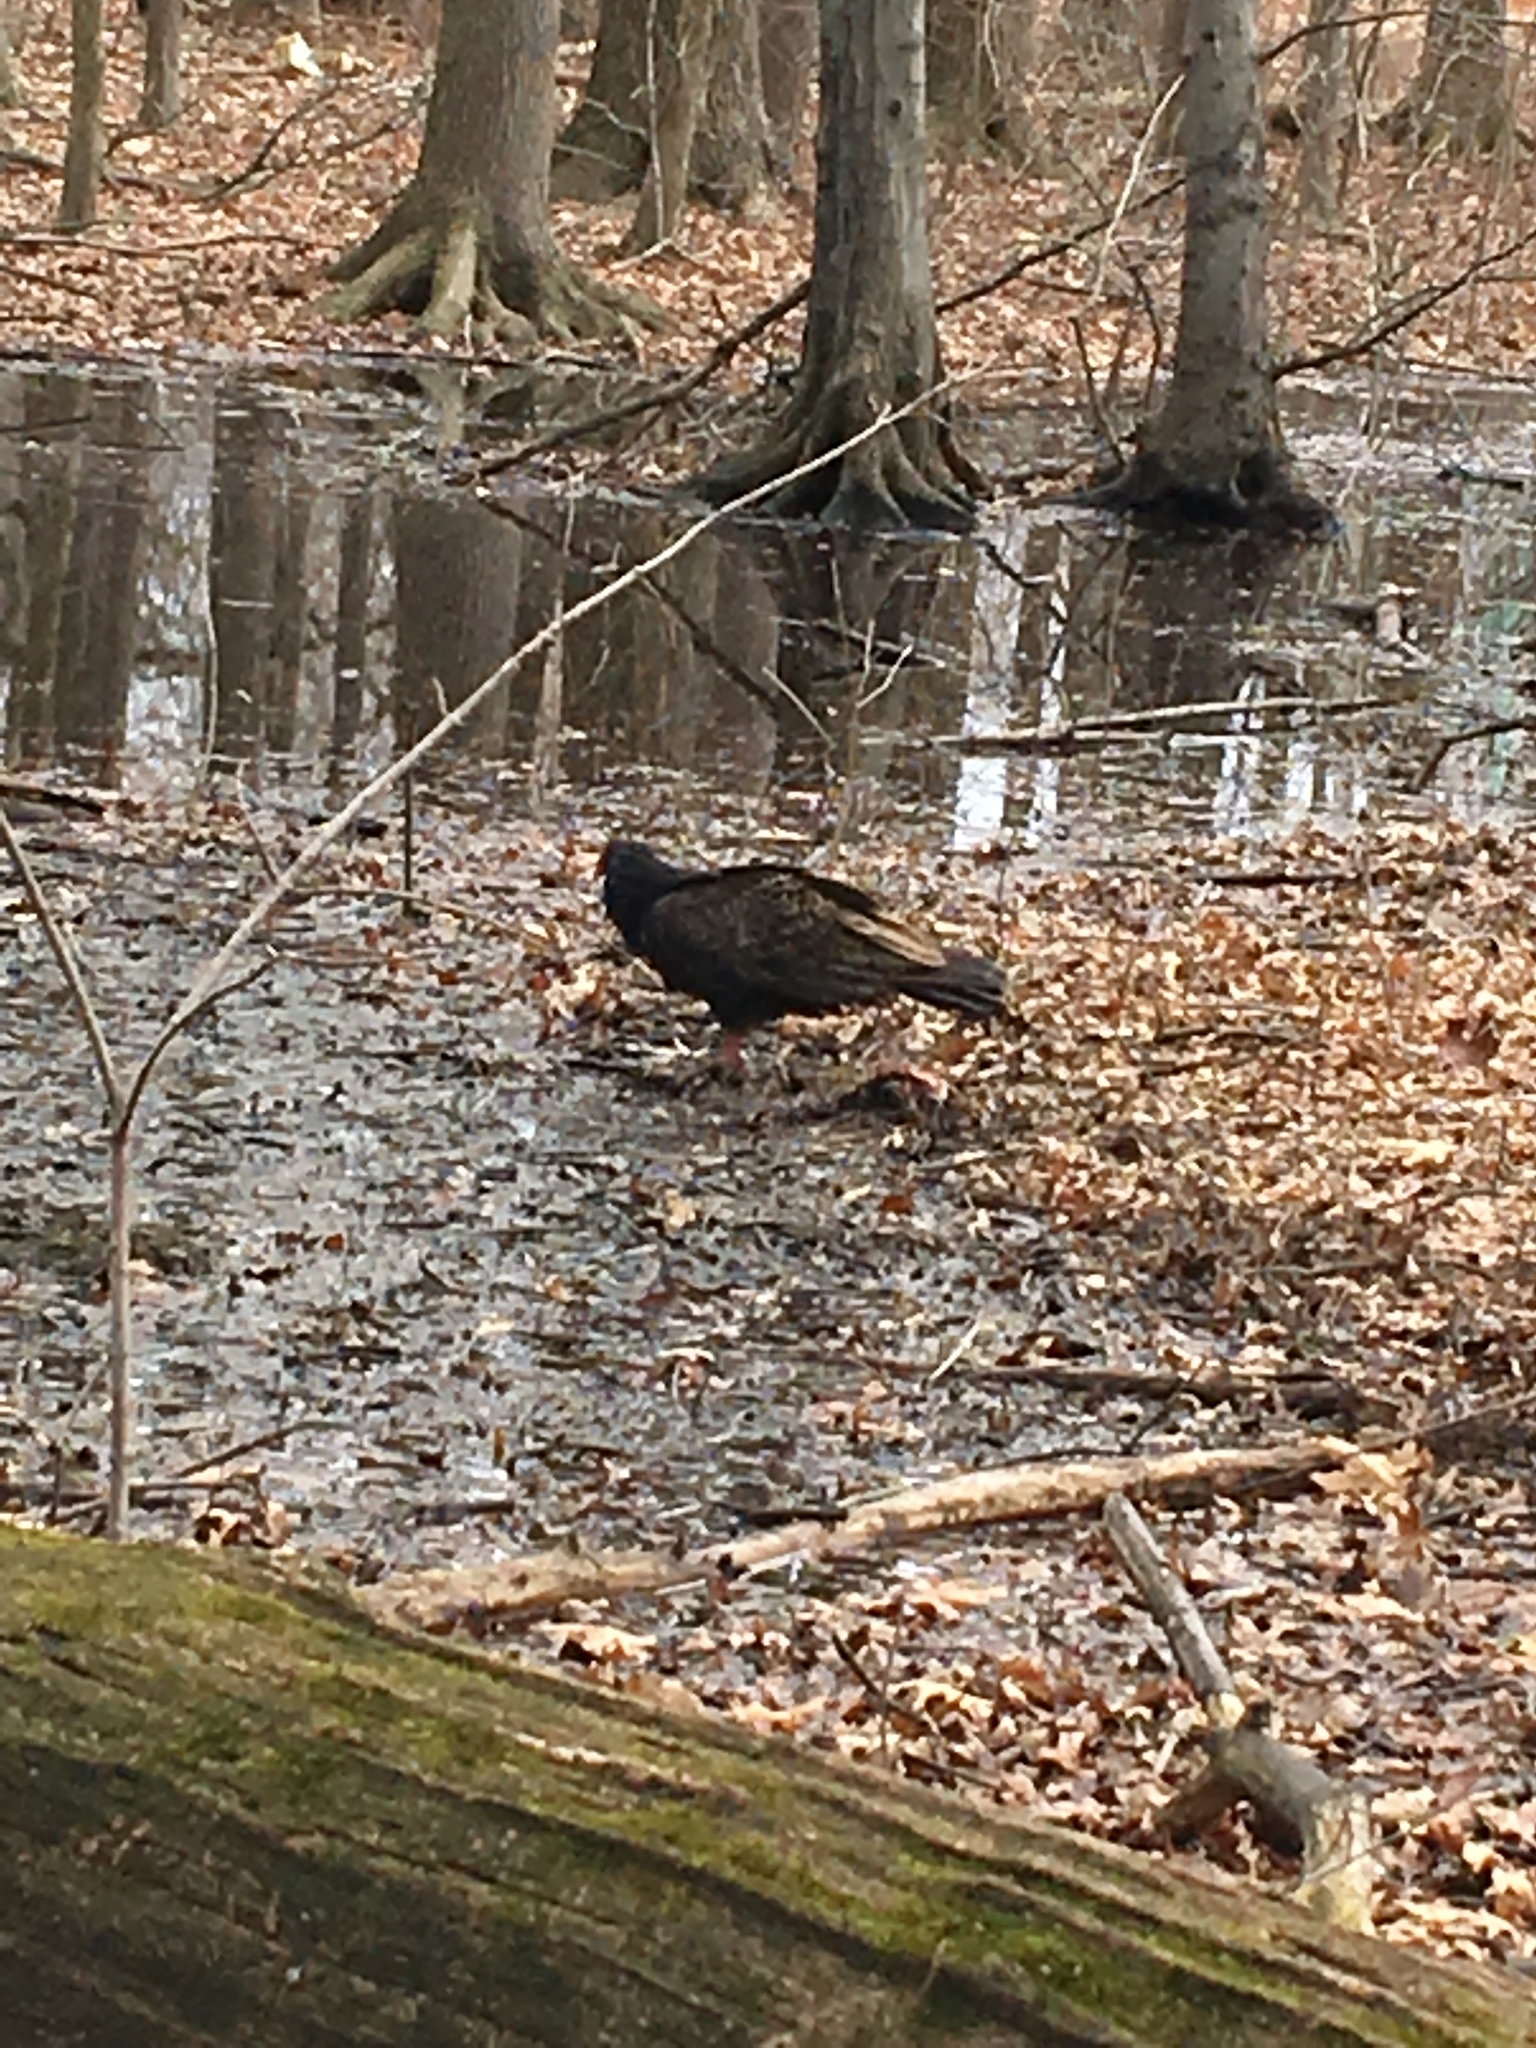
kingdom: Animalia
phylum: Chordata
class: Aves
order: Accipitriformes
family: Cathartidae
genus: Cathartes
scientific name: Cathartes aura
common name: Turkey vulture
